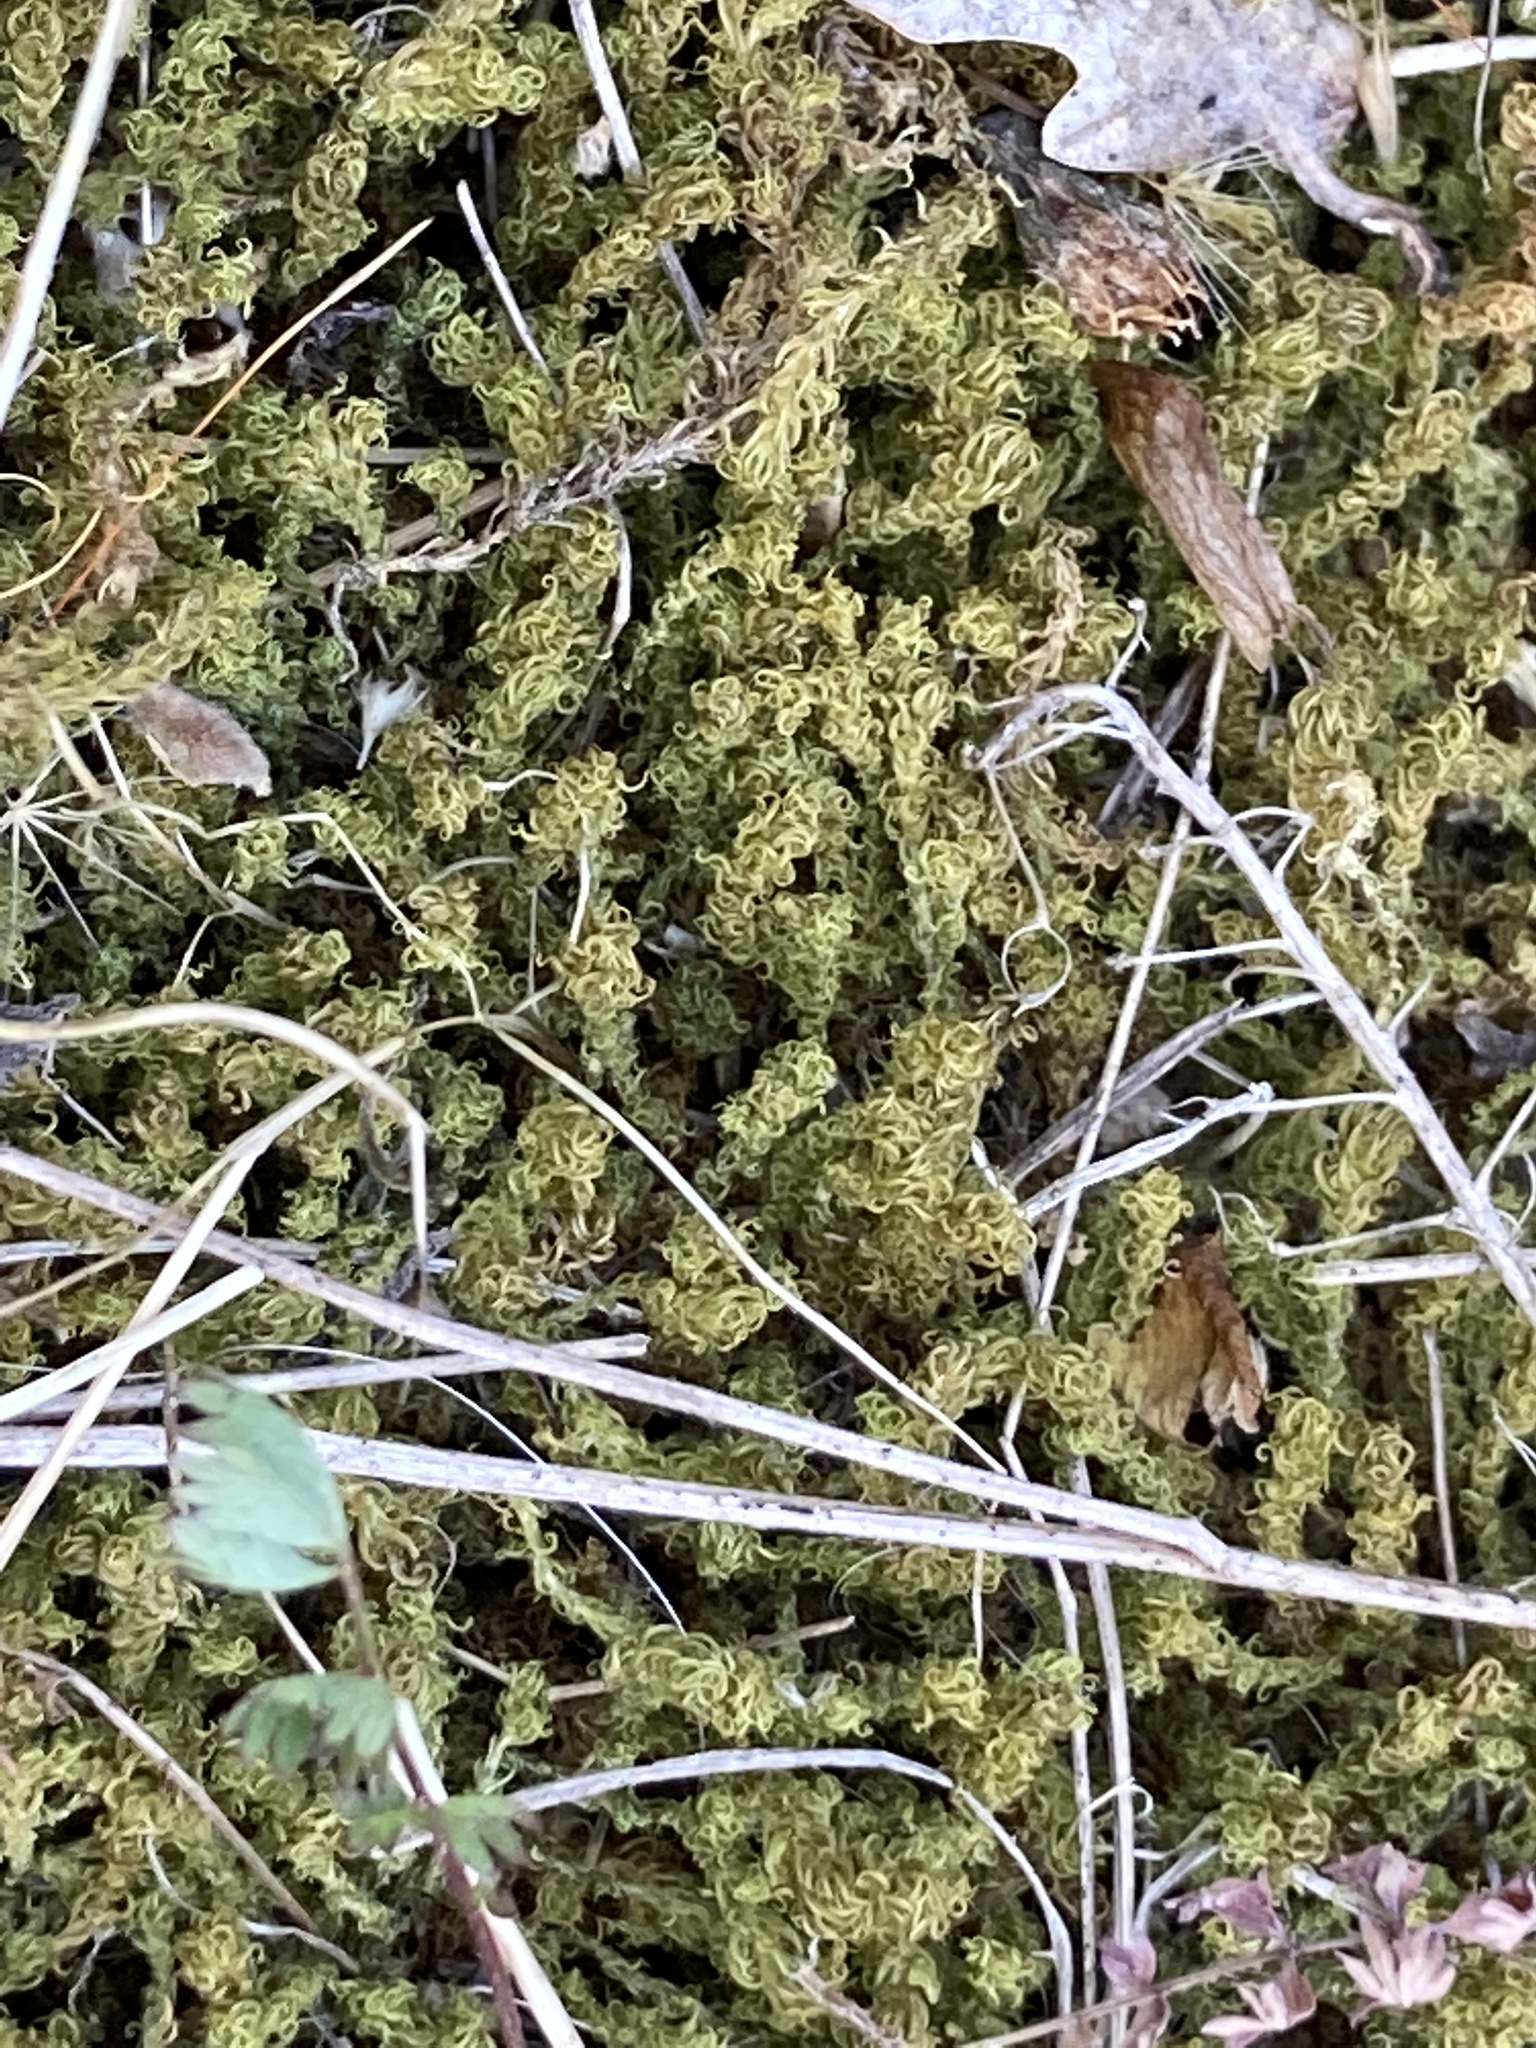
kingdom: Plantae
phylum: Bryophyta
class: Bryopsida
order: Pottiales
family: Pottiaceae
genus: Pleurochaete
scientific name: Pleurochaete squarrosa
